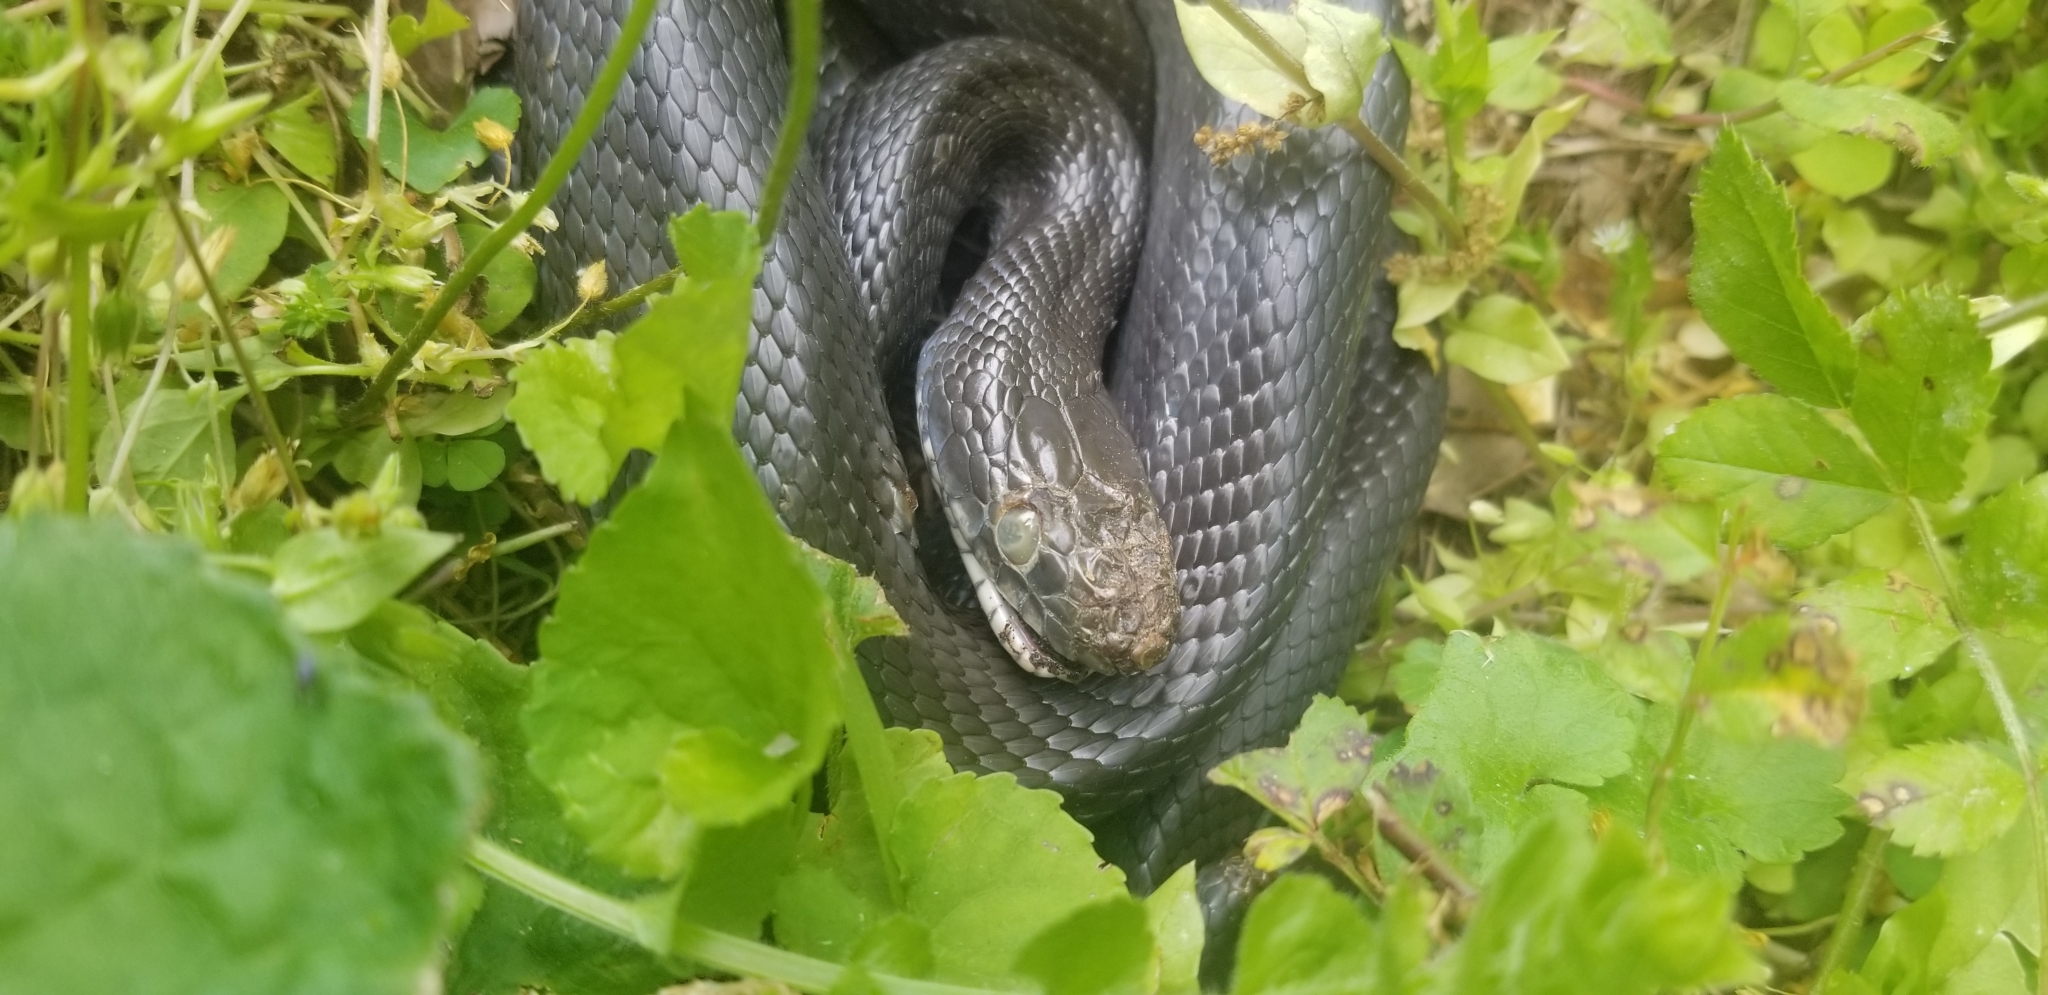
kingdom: Animalia
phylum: Chordata
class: Squamata
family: Colubridae
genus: Pantherophis
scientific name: Pantherophis alleghaniensis
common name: Eastern rat snake
